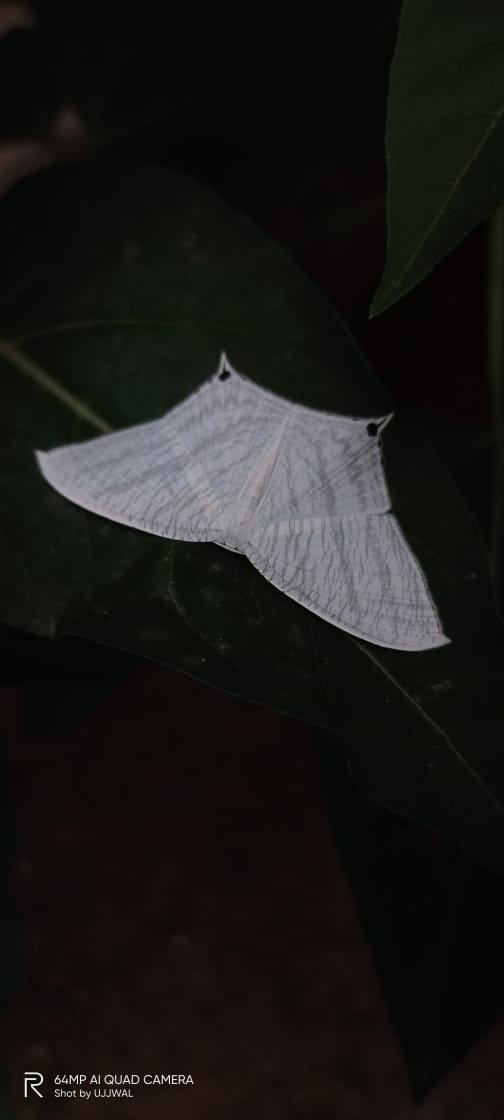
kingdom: Animalia
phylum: Arthropoda
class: Insecta
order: Lepidoptera
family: Uraniidae
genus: Micronia
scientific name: Micronia aculeata
